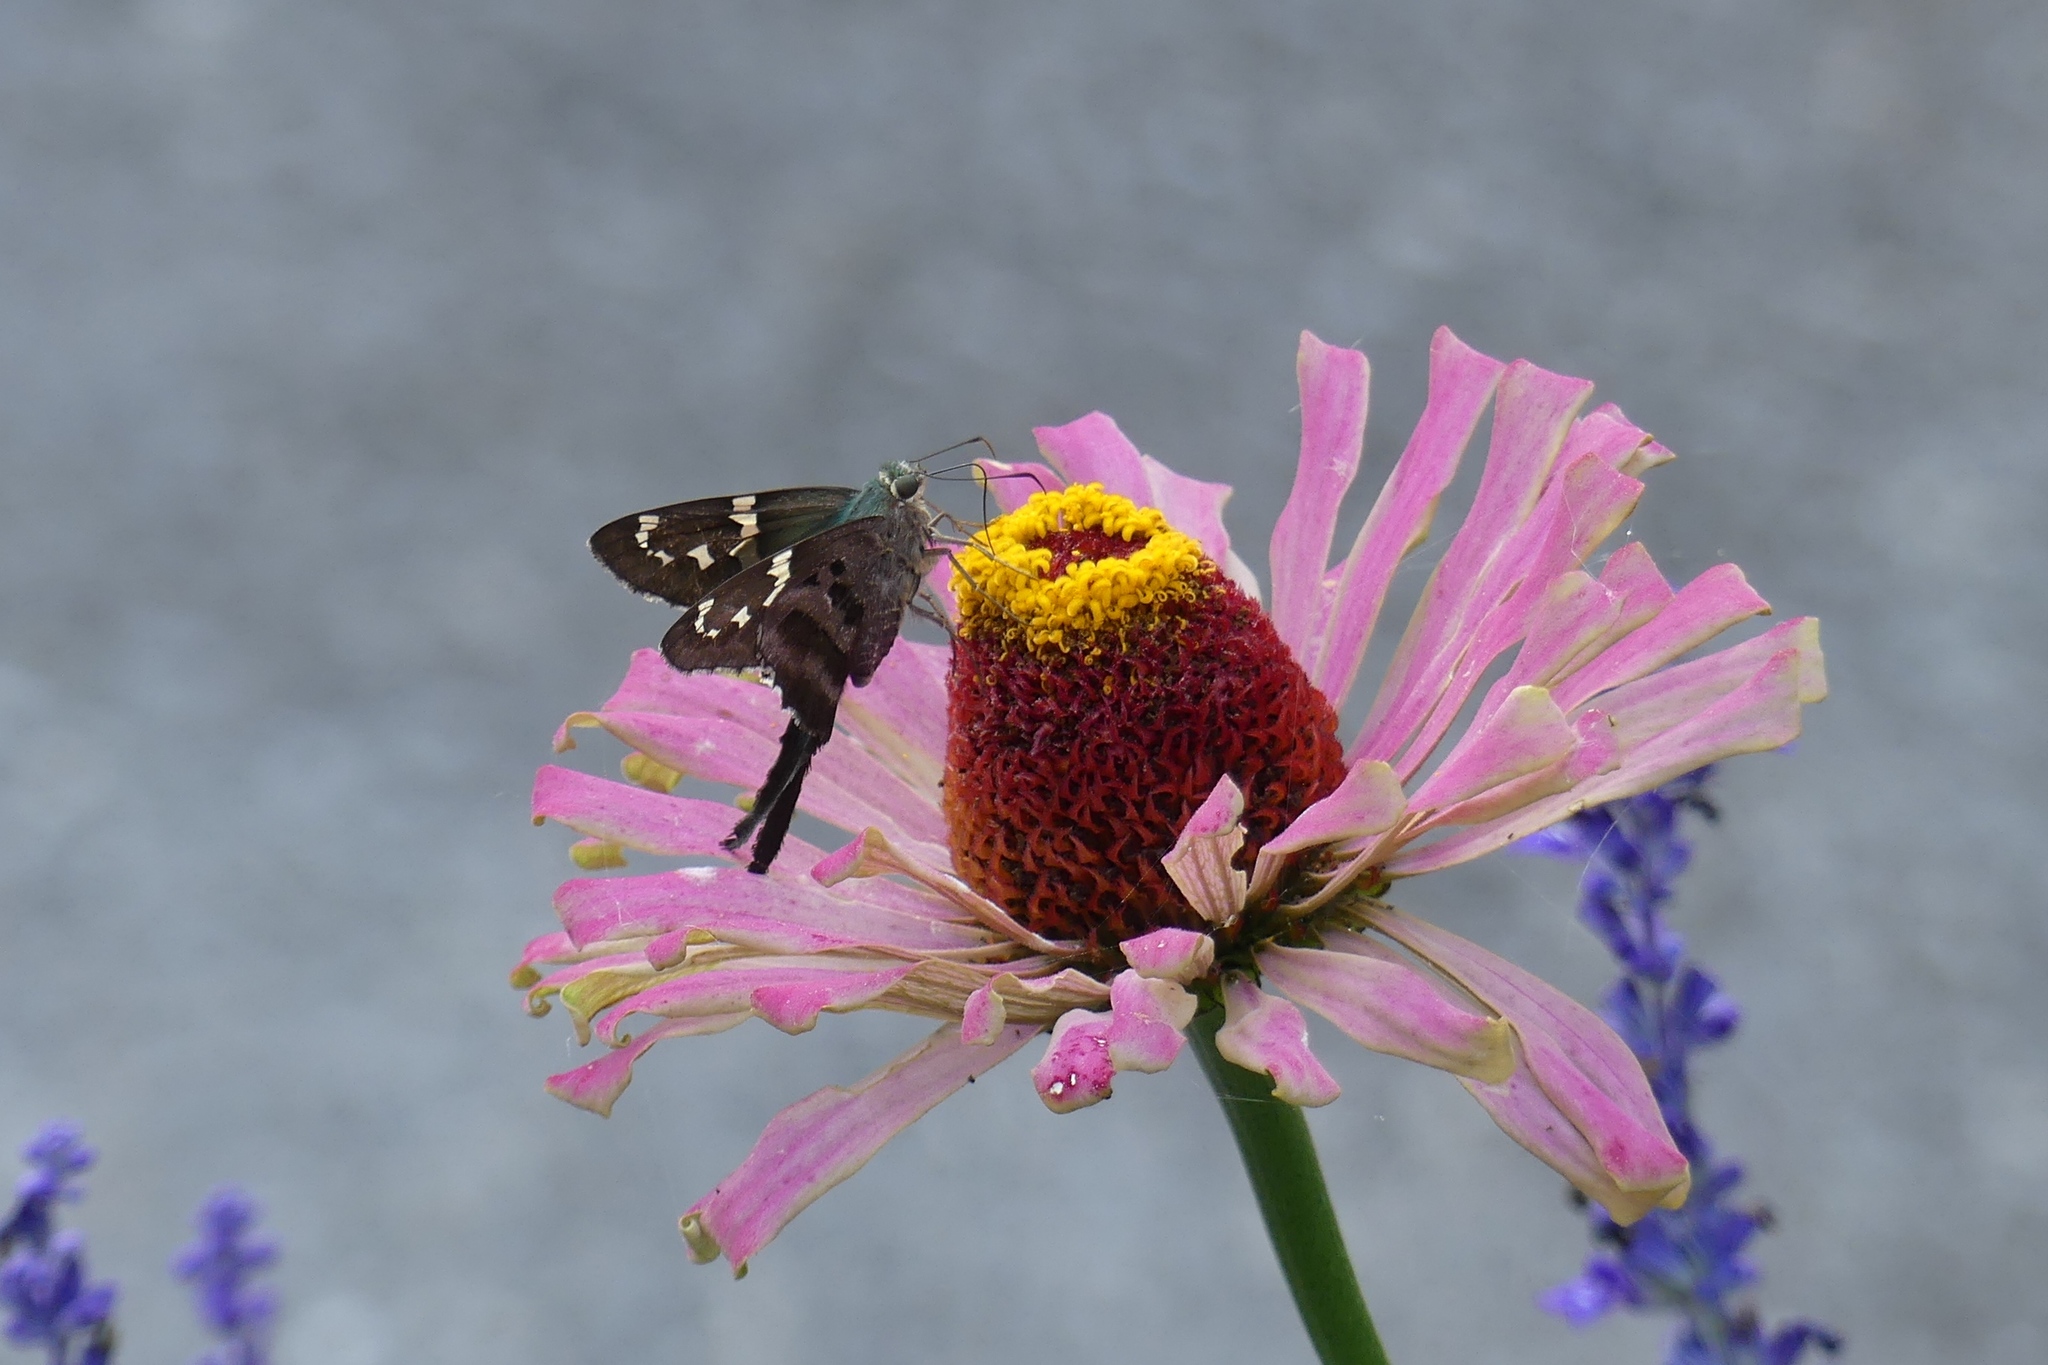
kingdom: Animalia
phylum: Arthropoda
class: Insecta
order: Lepidoptera
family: Hesperiidae
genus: Urbanus
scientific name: Urbanus proteus
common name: Long-tailed skipper
